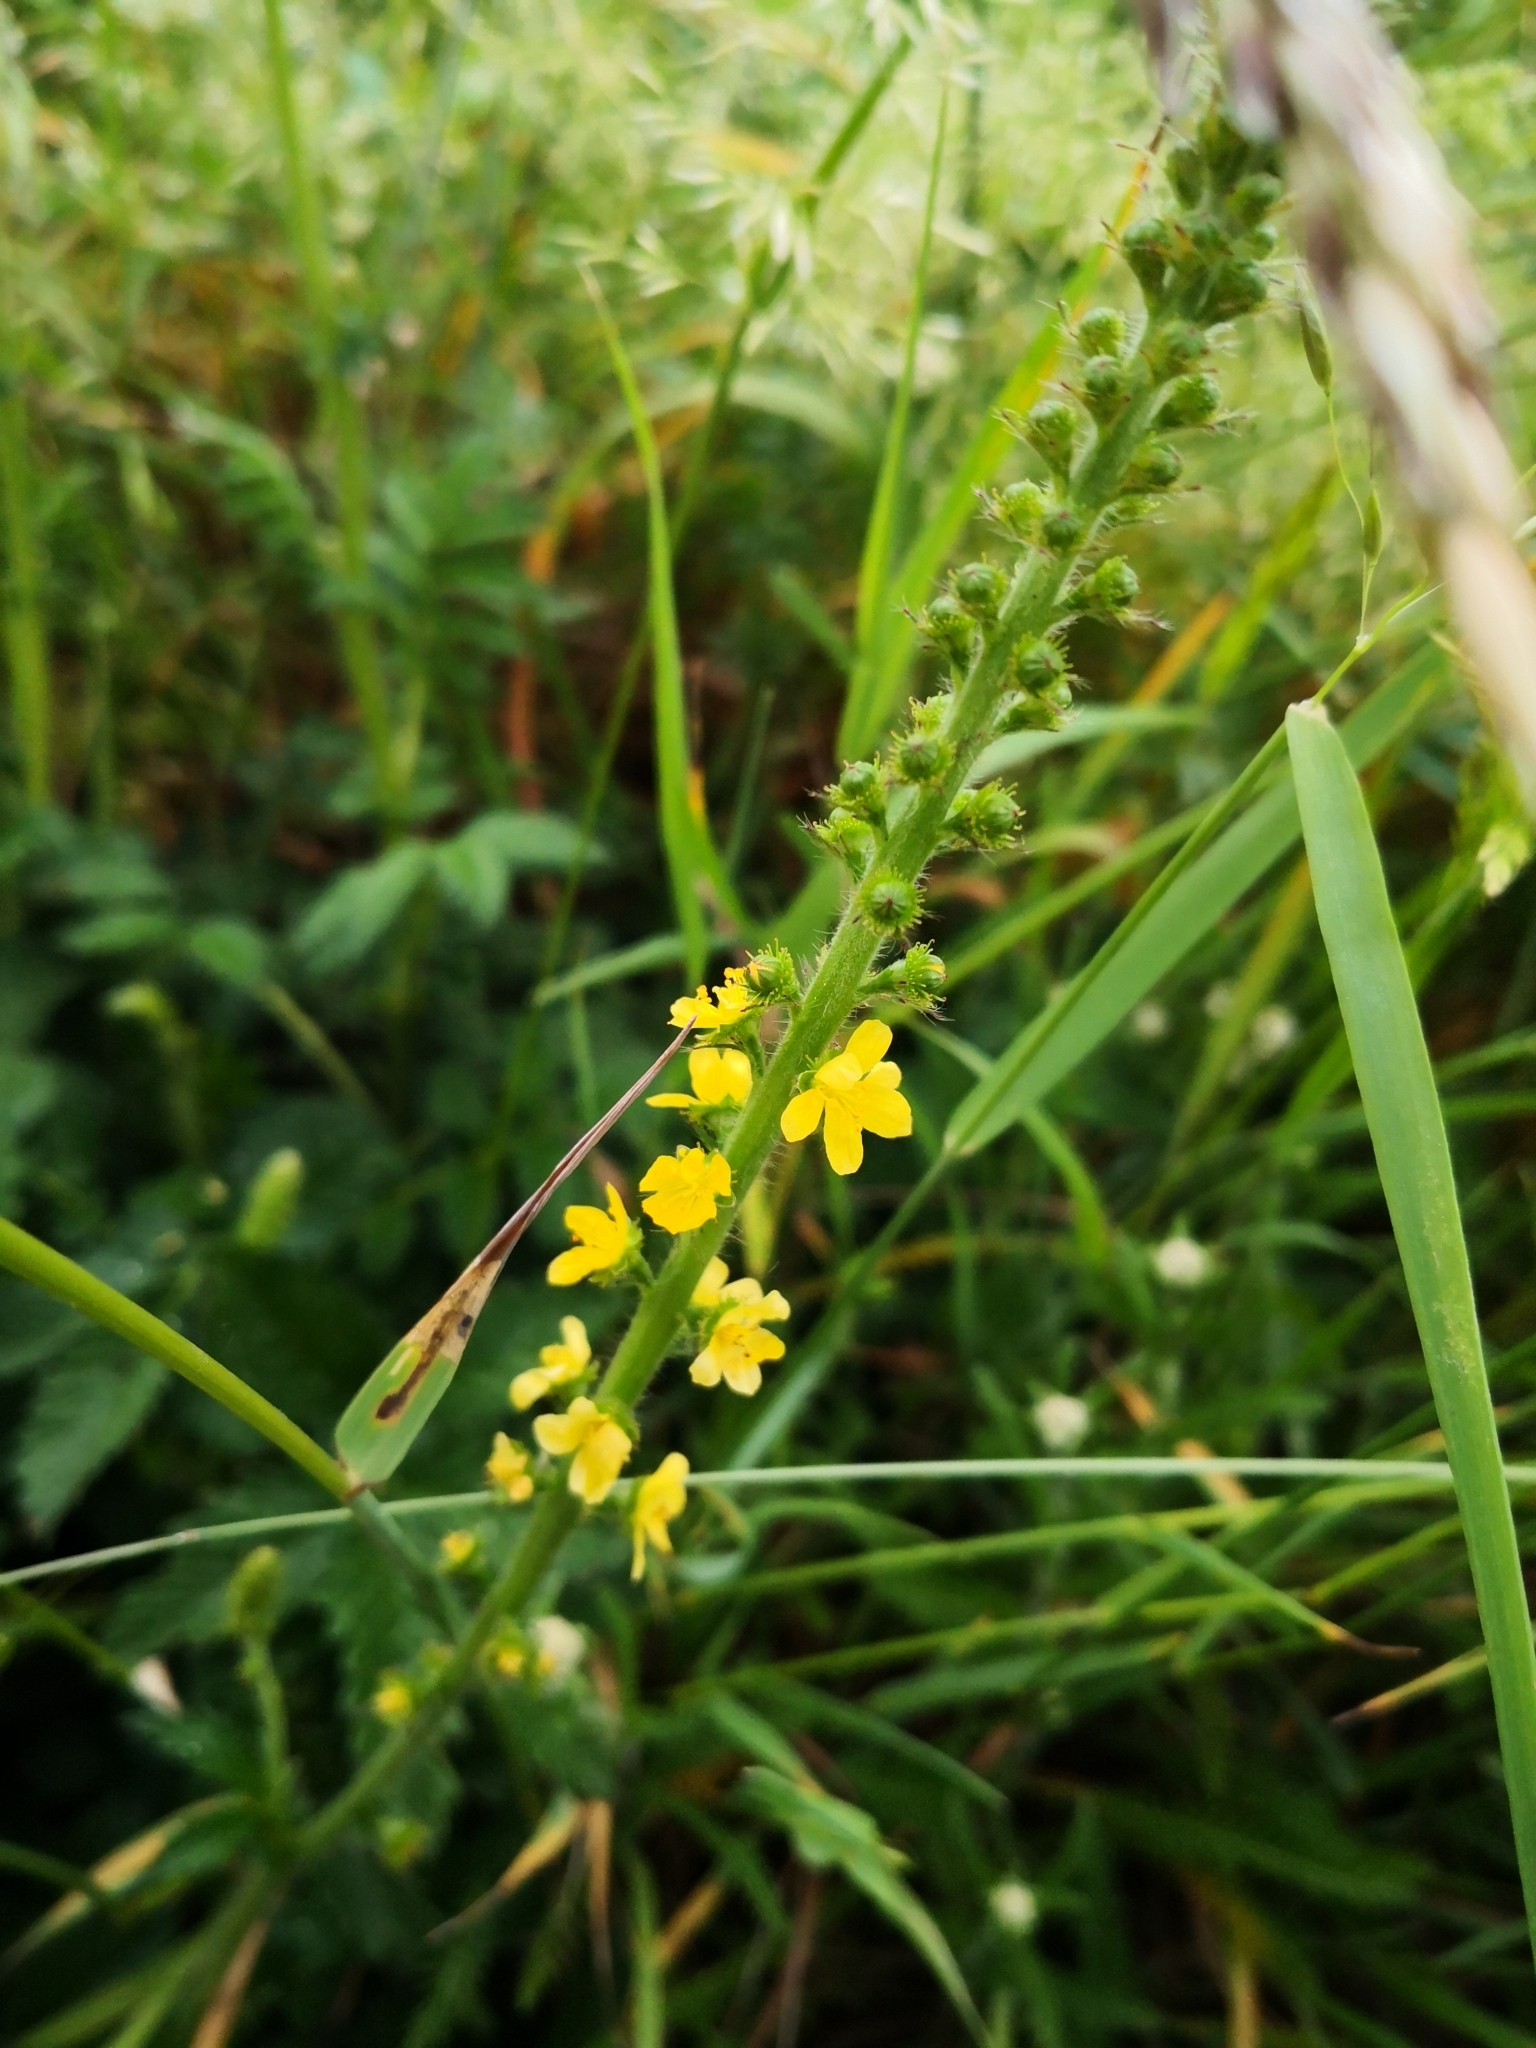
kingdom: Plantae
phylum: Tracheophyta
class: Magnoliopsida
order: Rosales
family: Rosaceae
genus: Agrimonia
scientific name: Agrimonia eupatoria
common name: Agrimony
